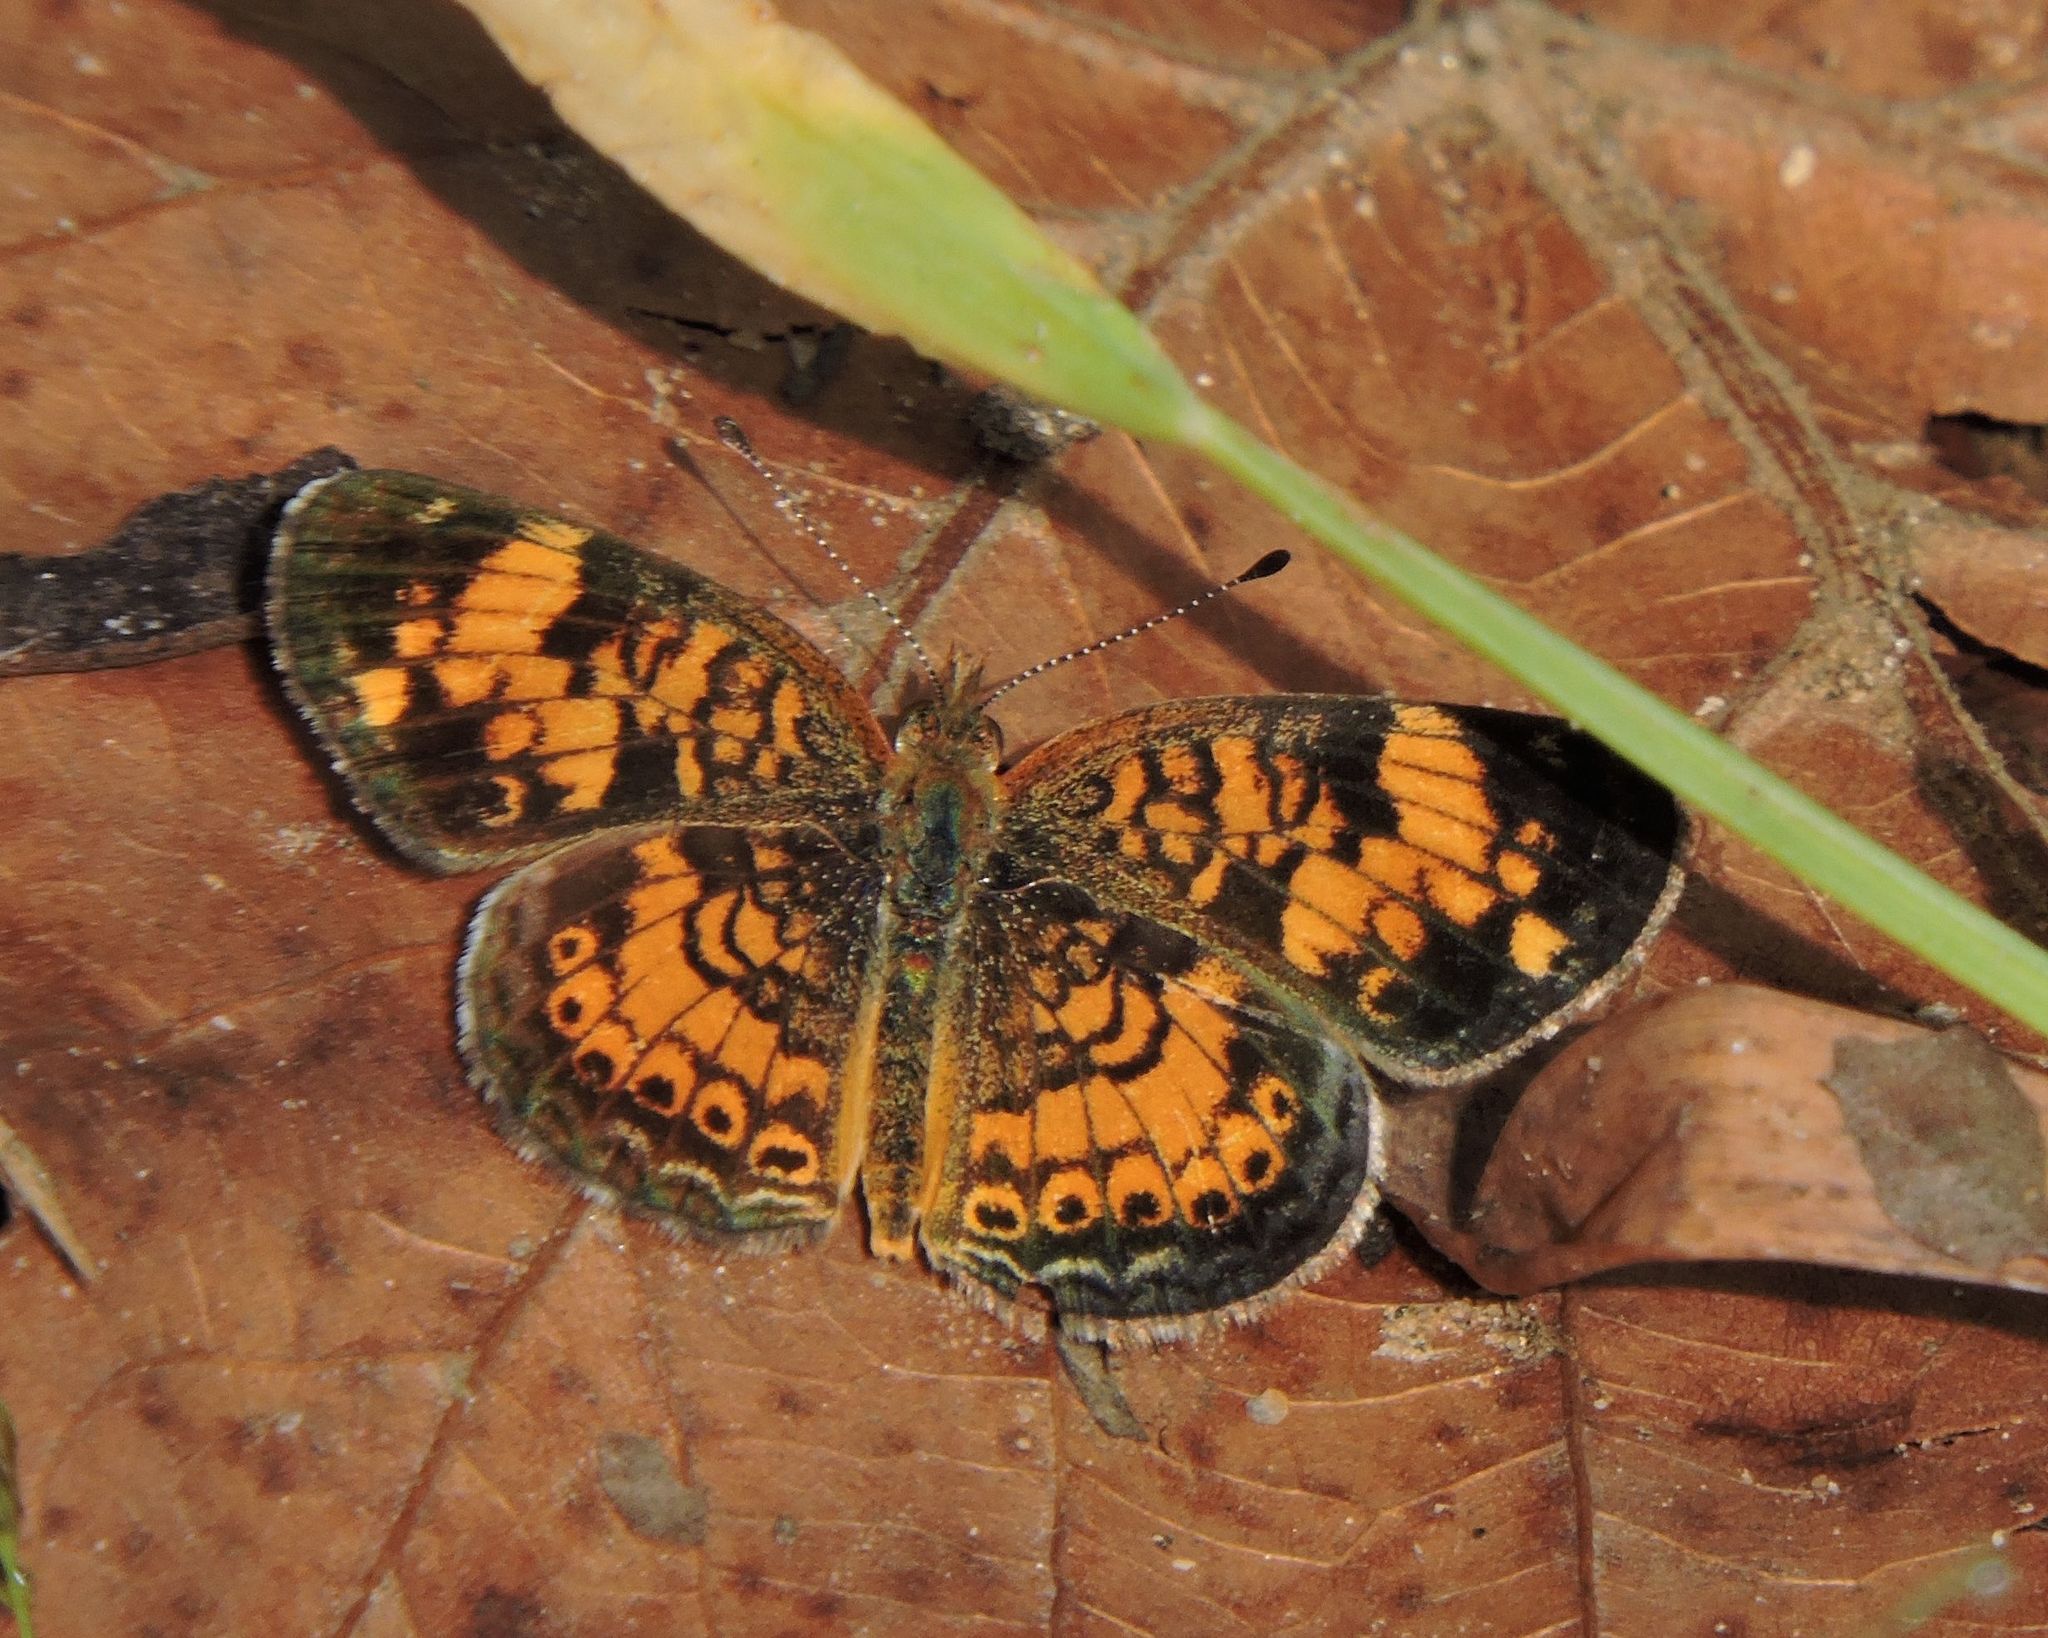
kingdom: Animalia
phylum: Arthropoda
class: Insecta
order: Lepidoptera
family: Nymphalidae
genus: Phyciodes
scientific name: Phyciodes tharos
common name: Pearl crescent
